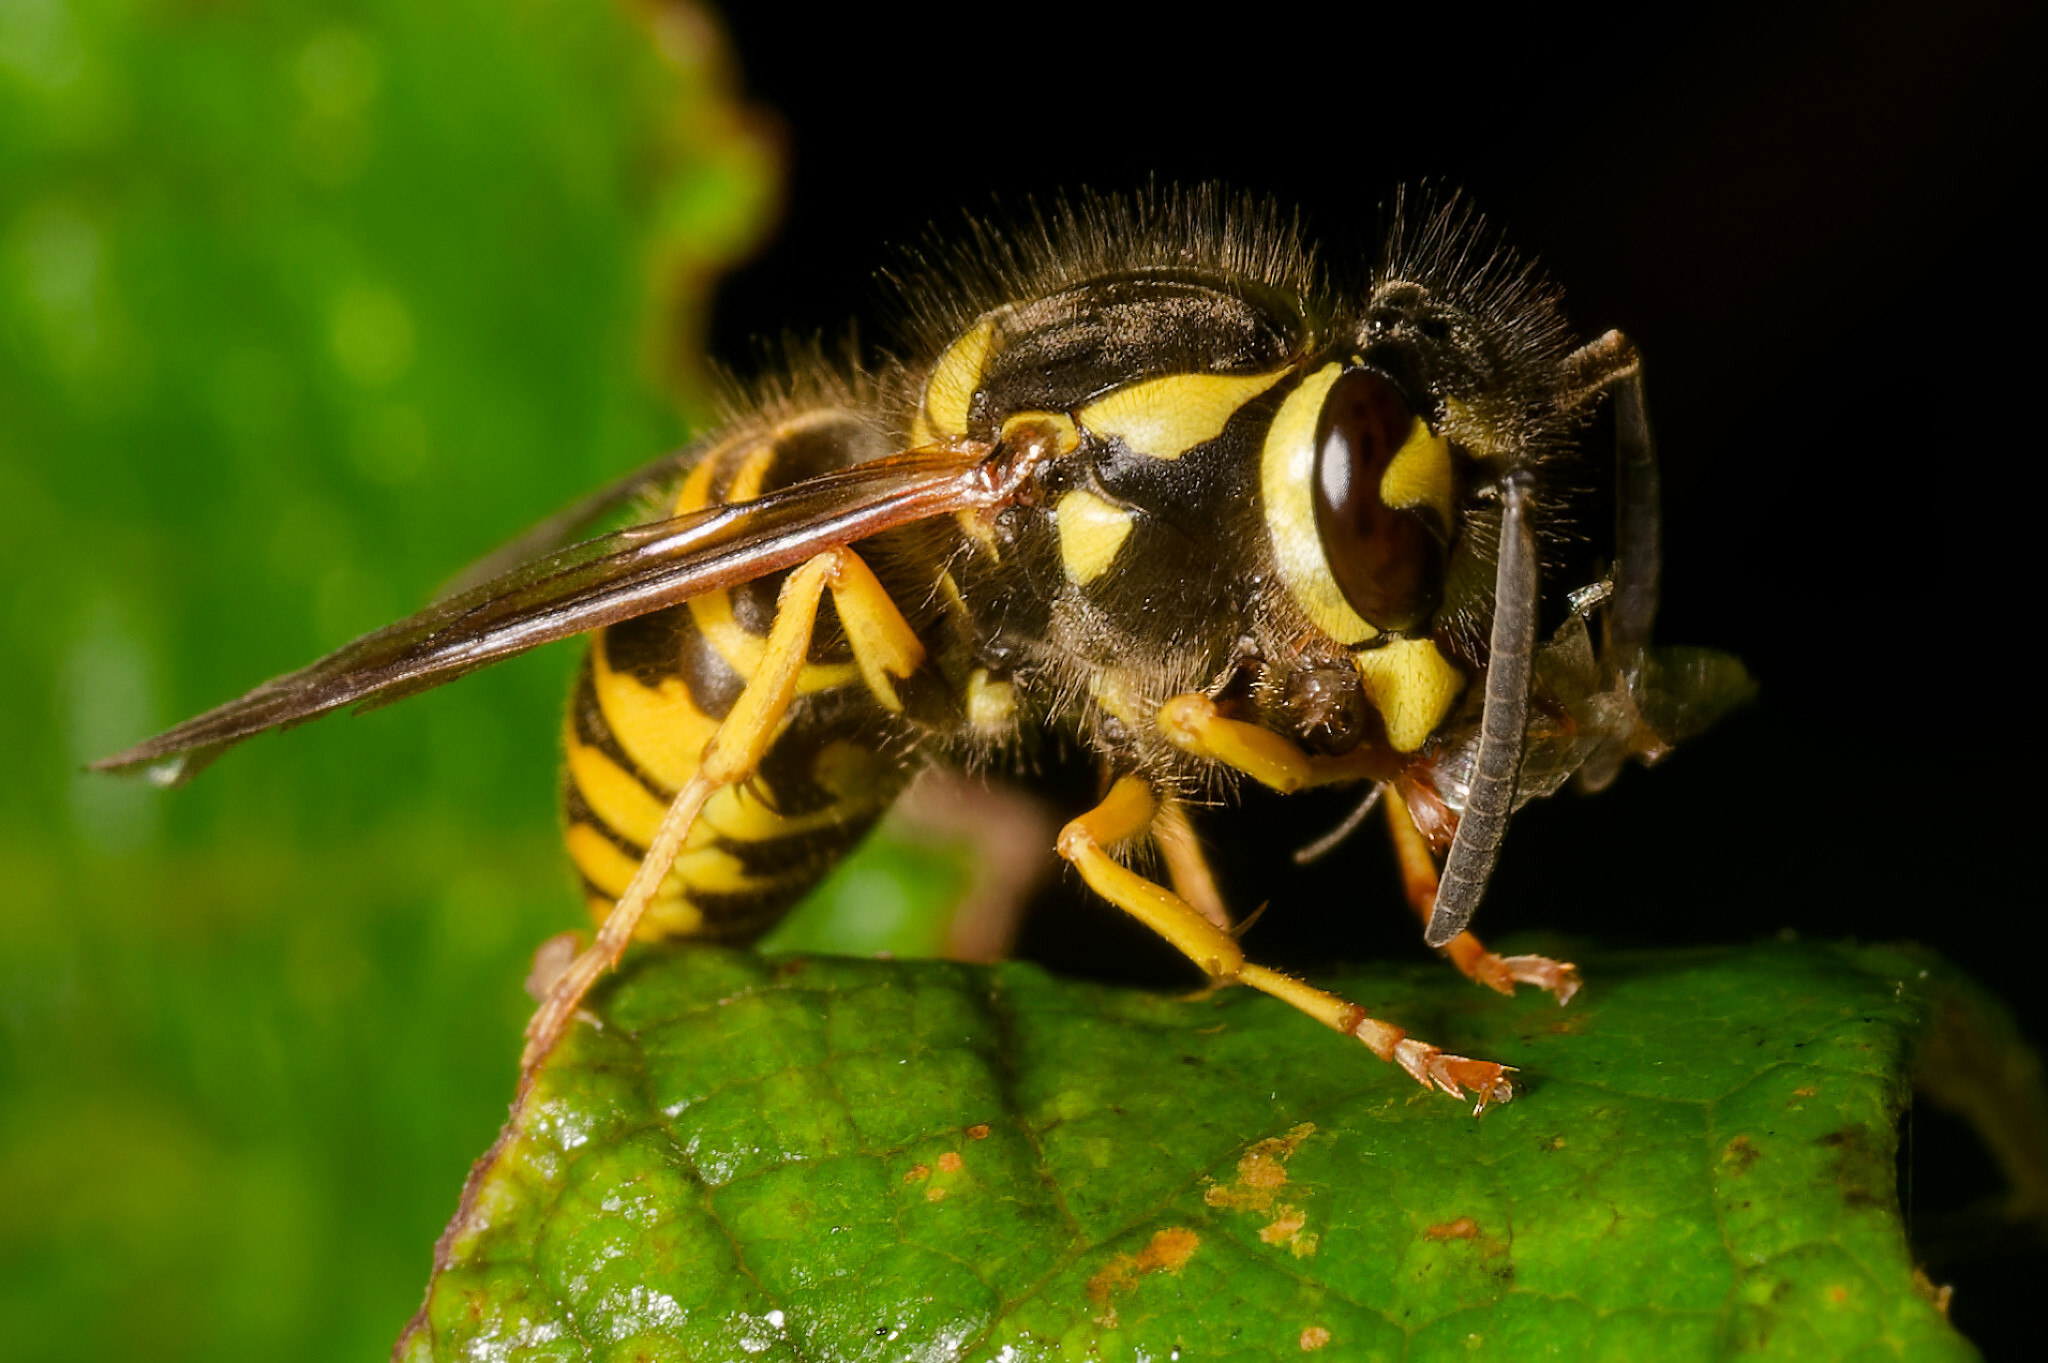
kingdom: Animalia
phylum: Arthropoda
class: Insecta
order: Hymenoptera
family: Vespidae
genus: Vespula
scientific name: Vespula maculifrons
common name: Eastern yellowjacket
